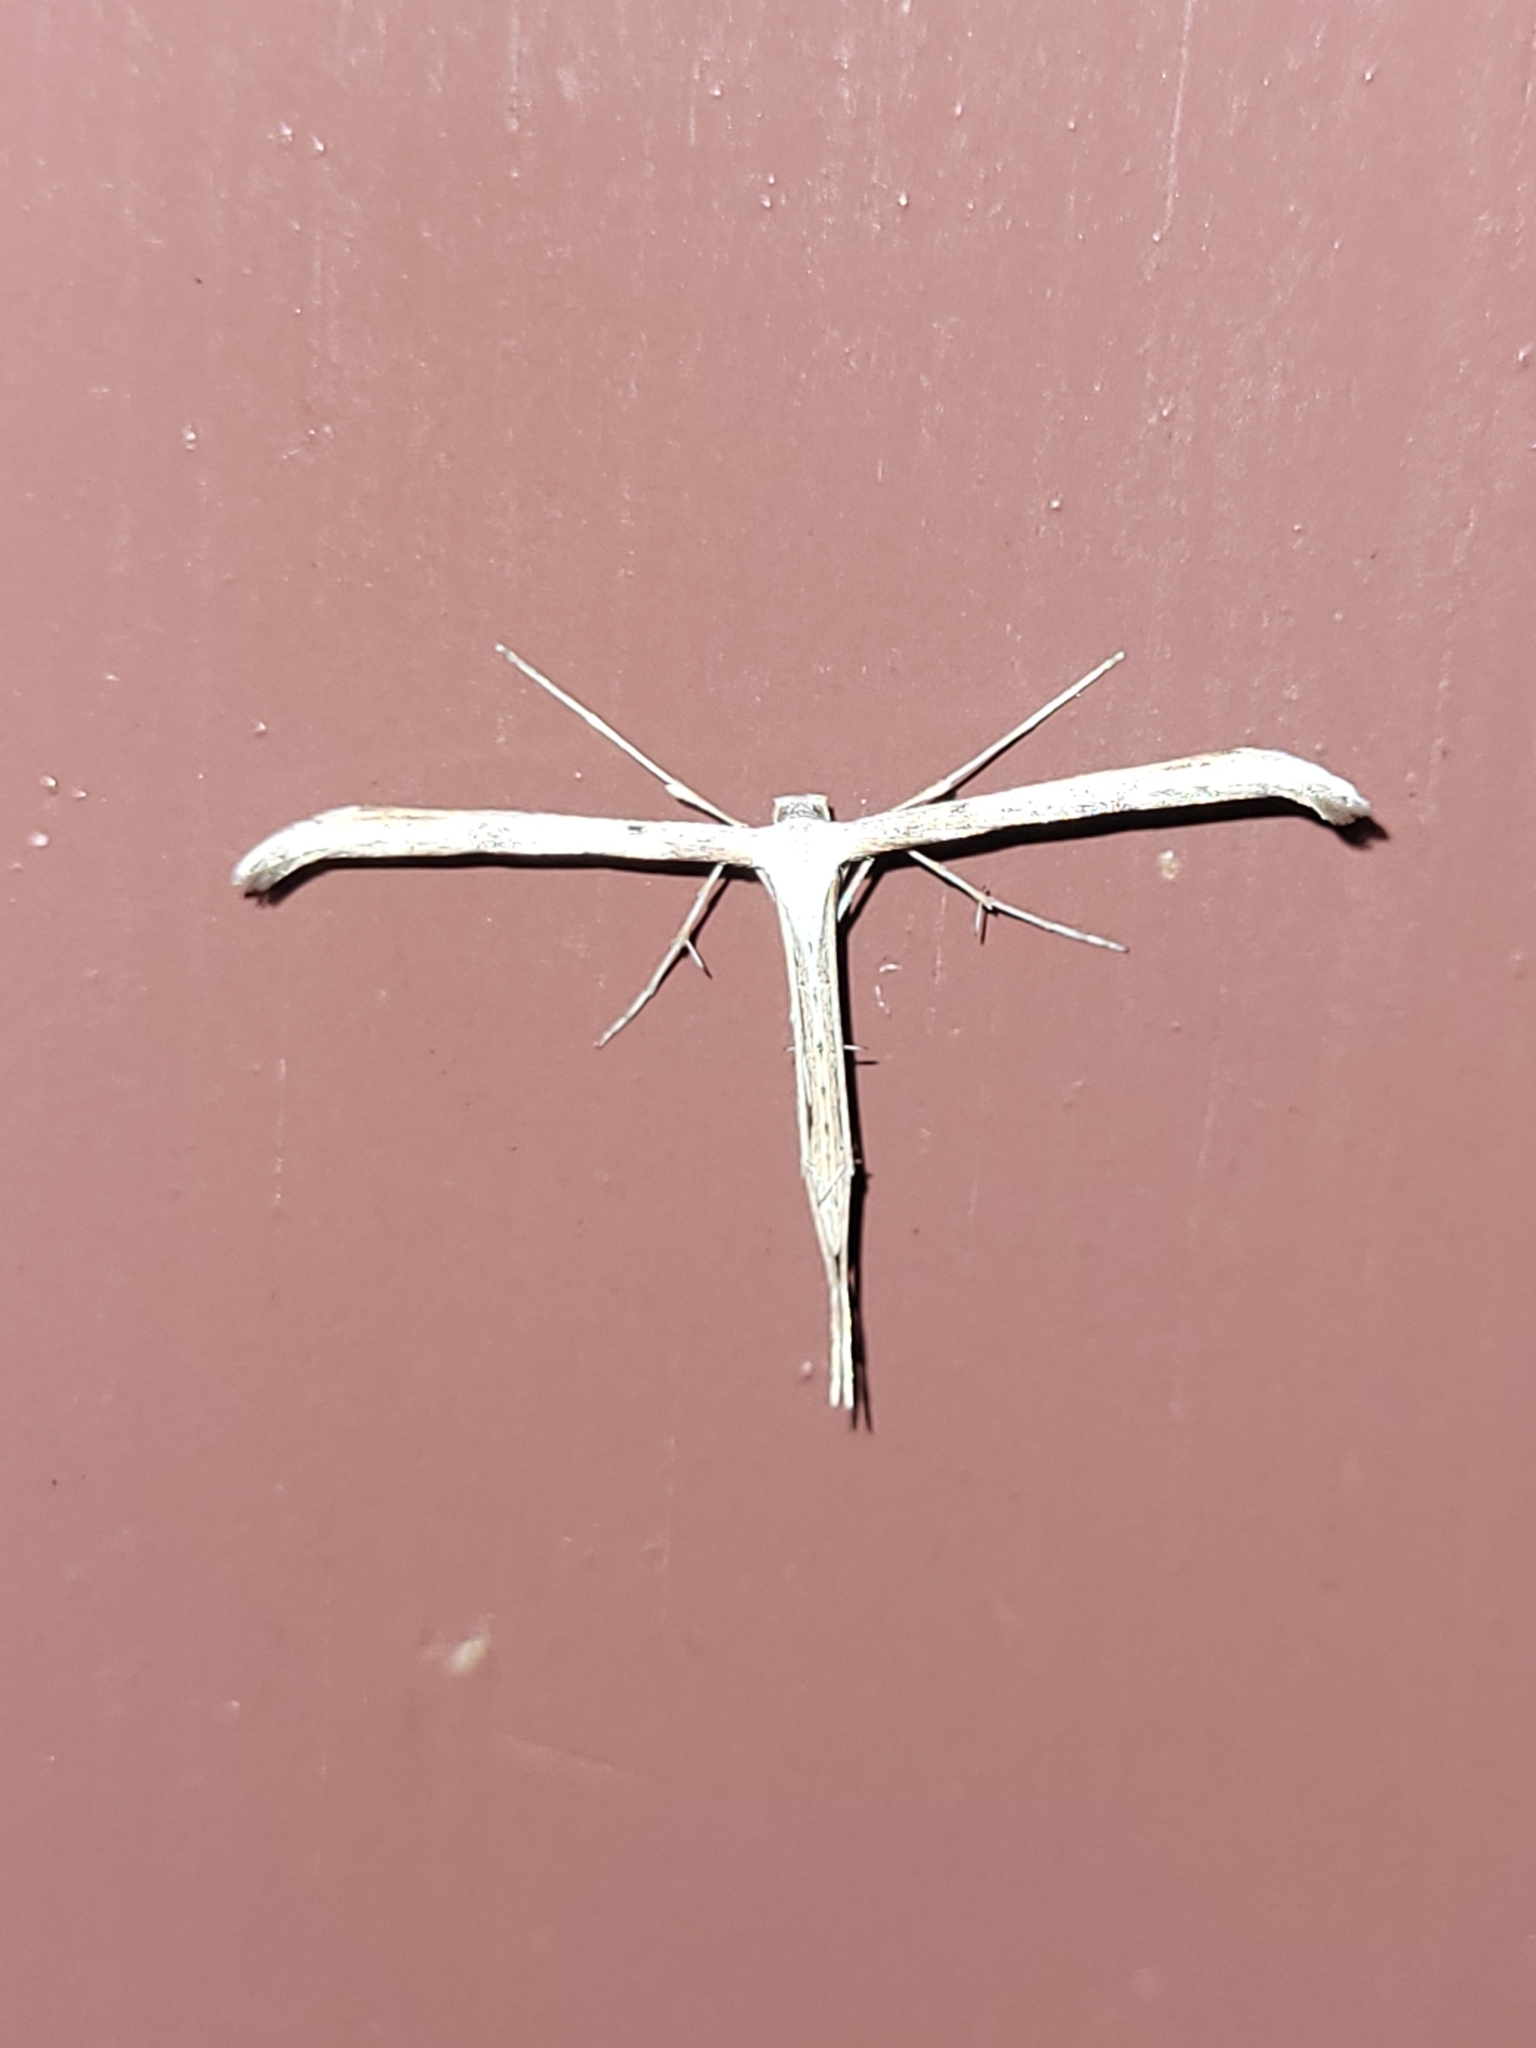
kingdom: Animalia
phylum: Arthropoda
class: Insecta
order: Lepidoptera
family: Pterophoridae
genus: Emmelina
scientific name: Emmelina monodactyla
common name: Common plume
